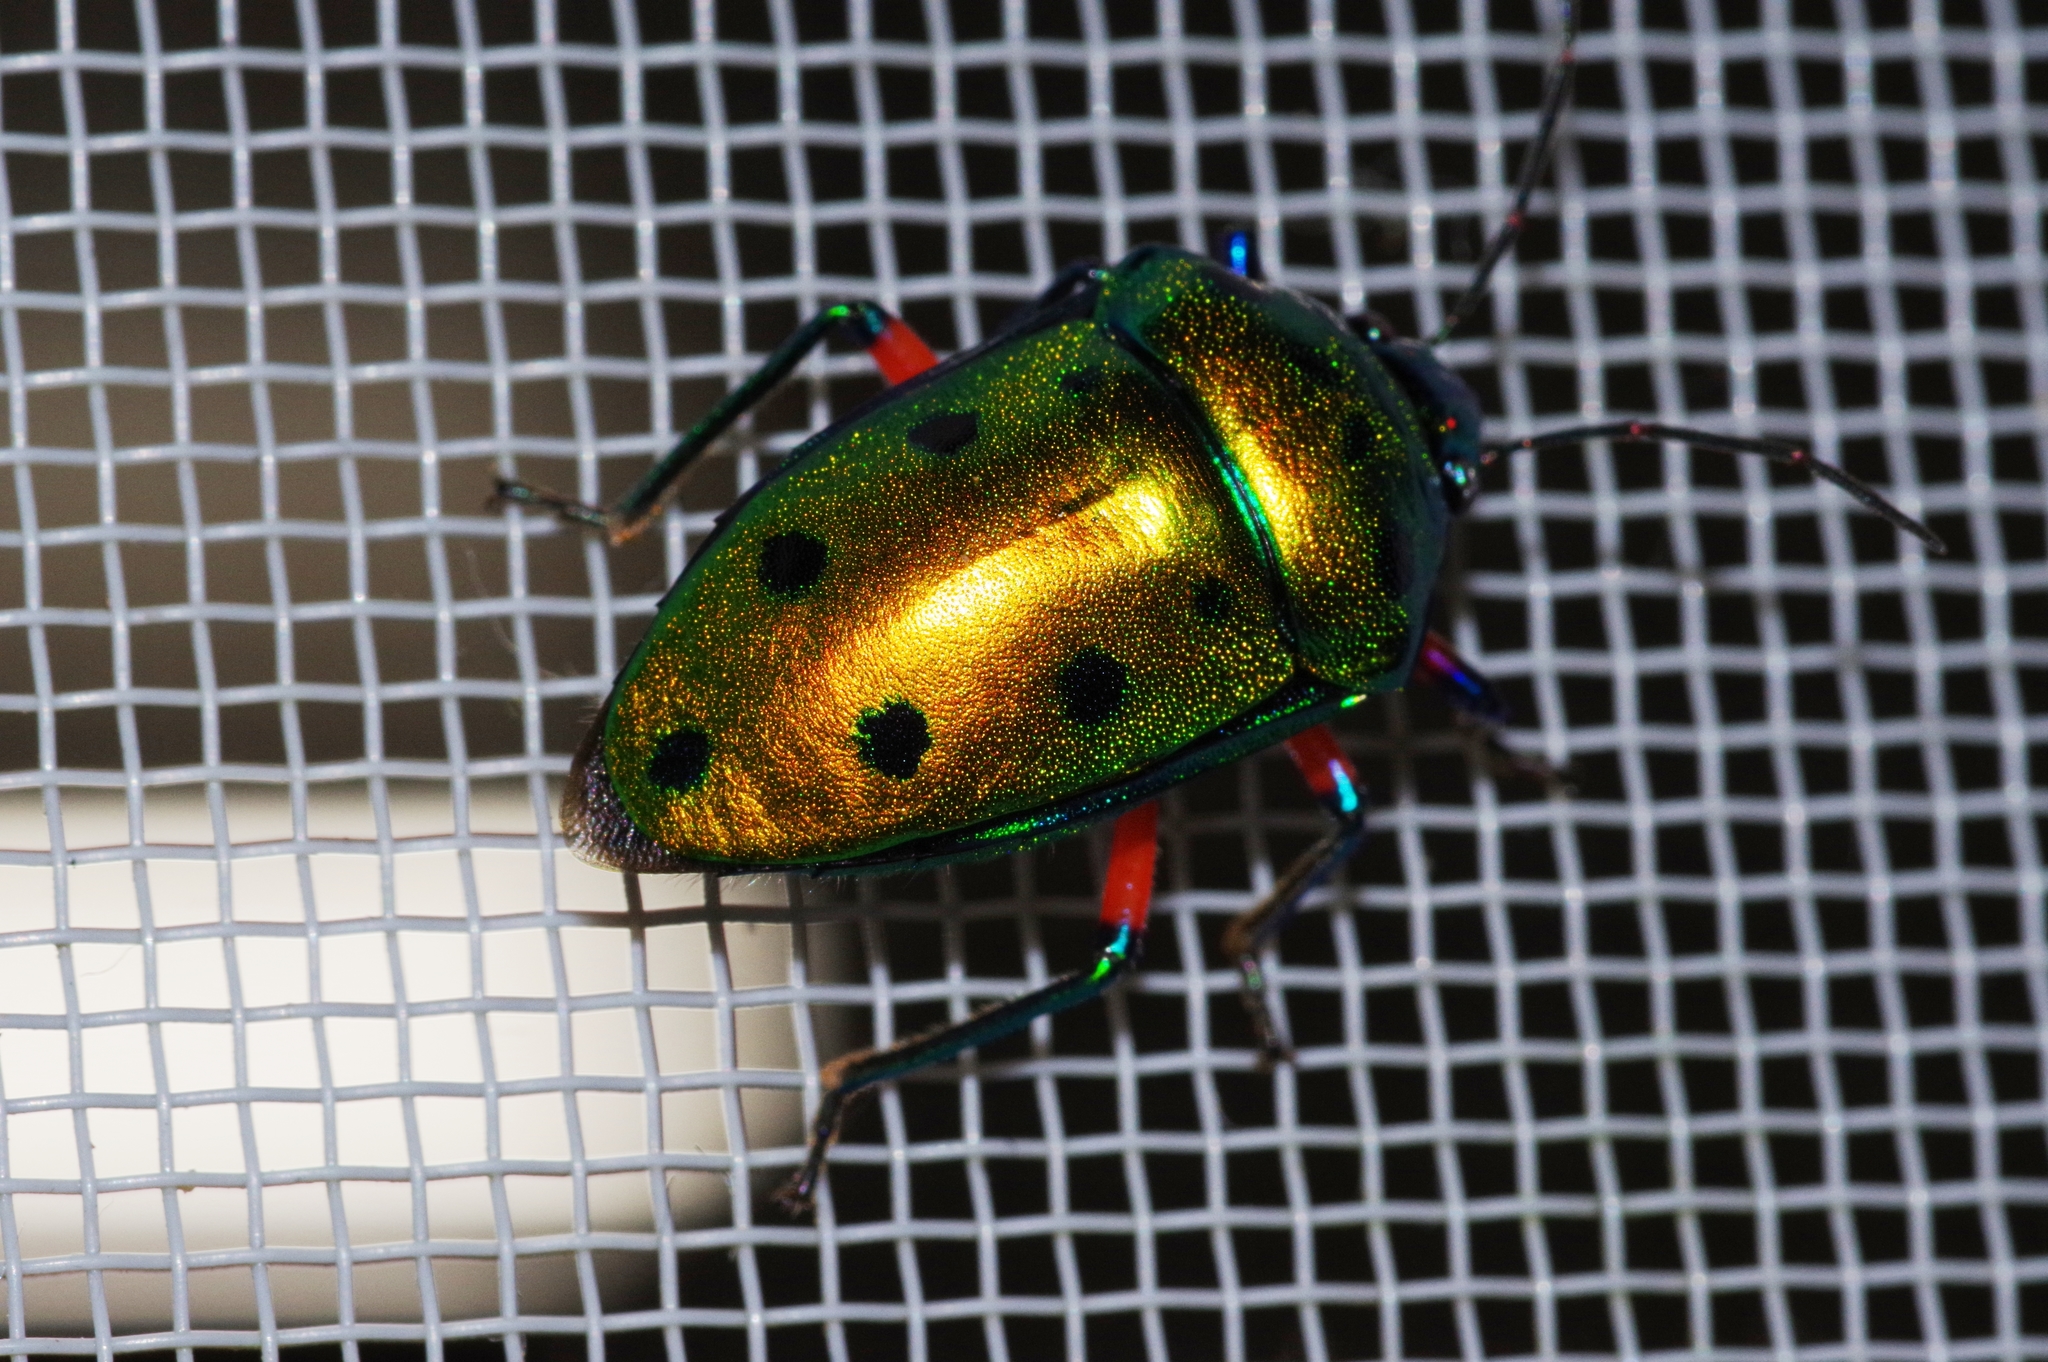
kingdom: Animalia
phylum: Arthropoda
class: Insecta
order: Hemiptera
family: Scutelleridae
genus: Calliphara
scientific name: Calliphara excellens
